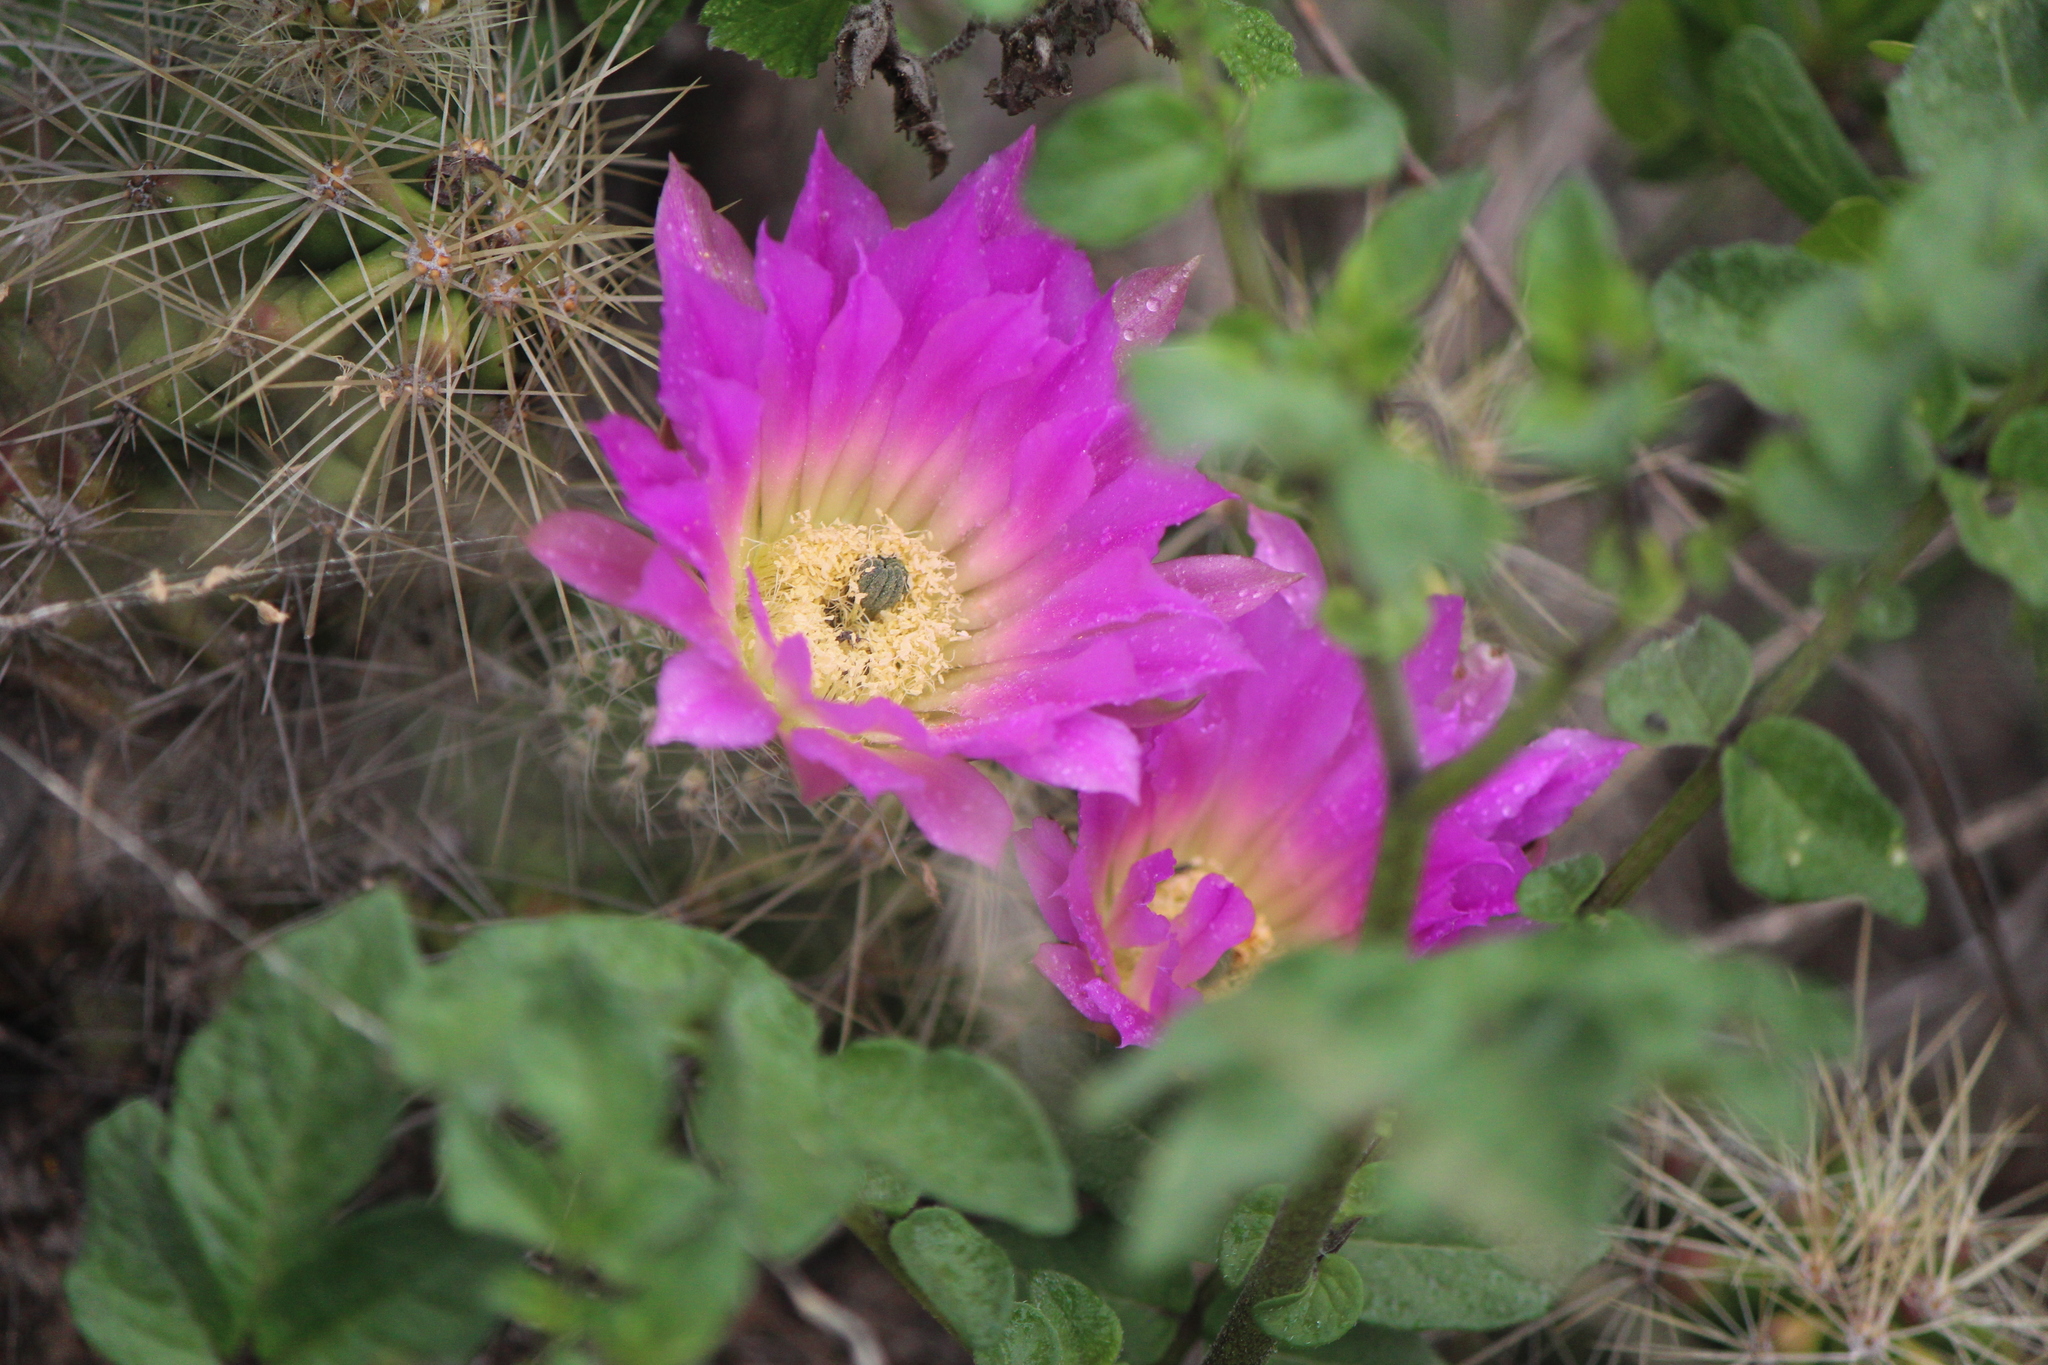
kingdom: Plantae
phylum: Tracheophyta
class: Magnoliopsida
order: Caryophyllales
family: Cactaceae
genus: Echinocereus
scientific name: Echinocereus cinerascens
